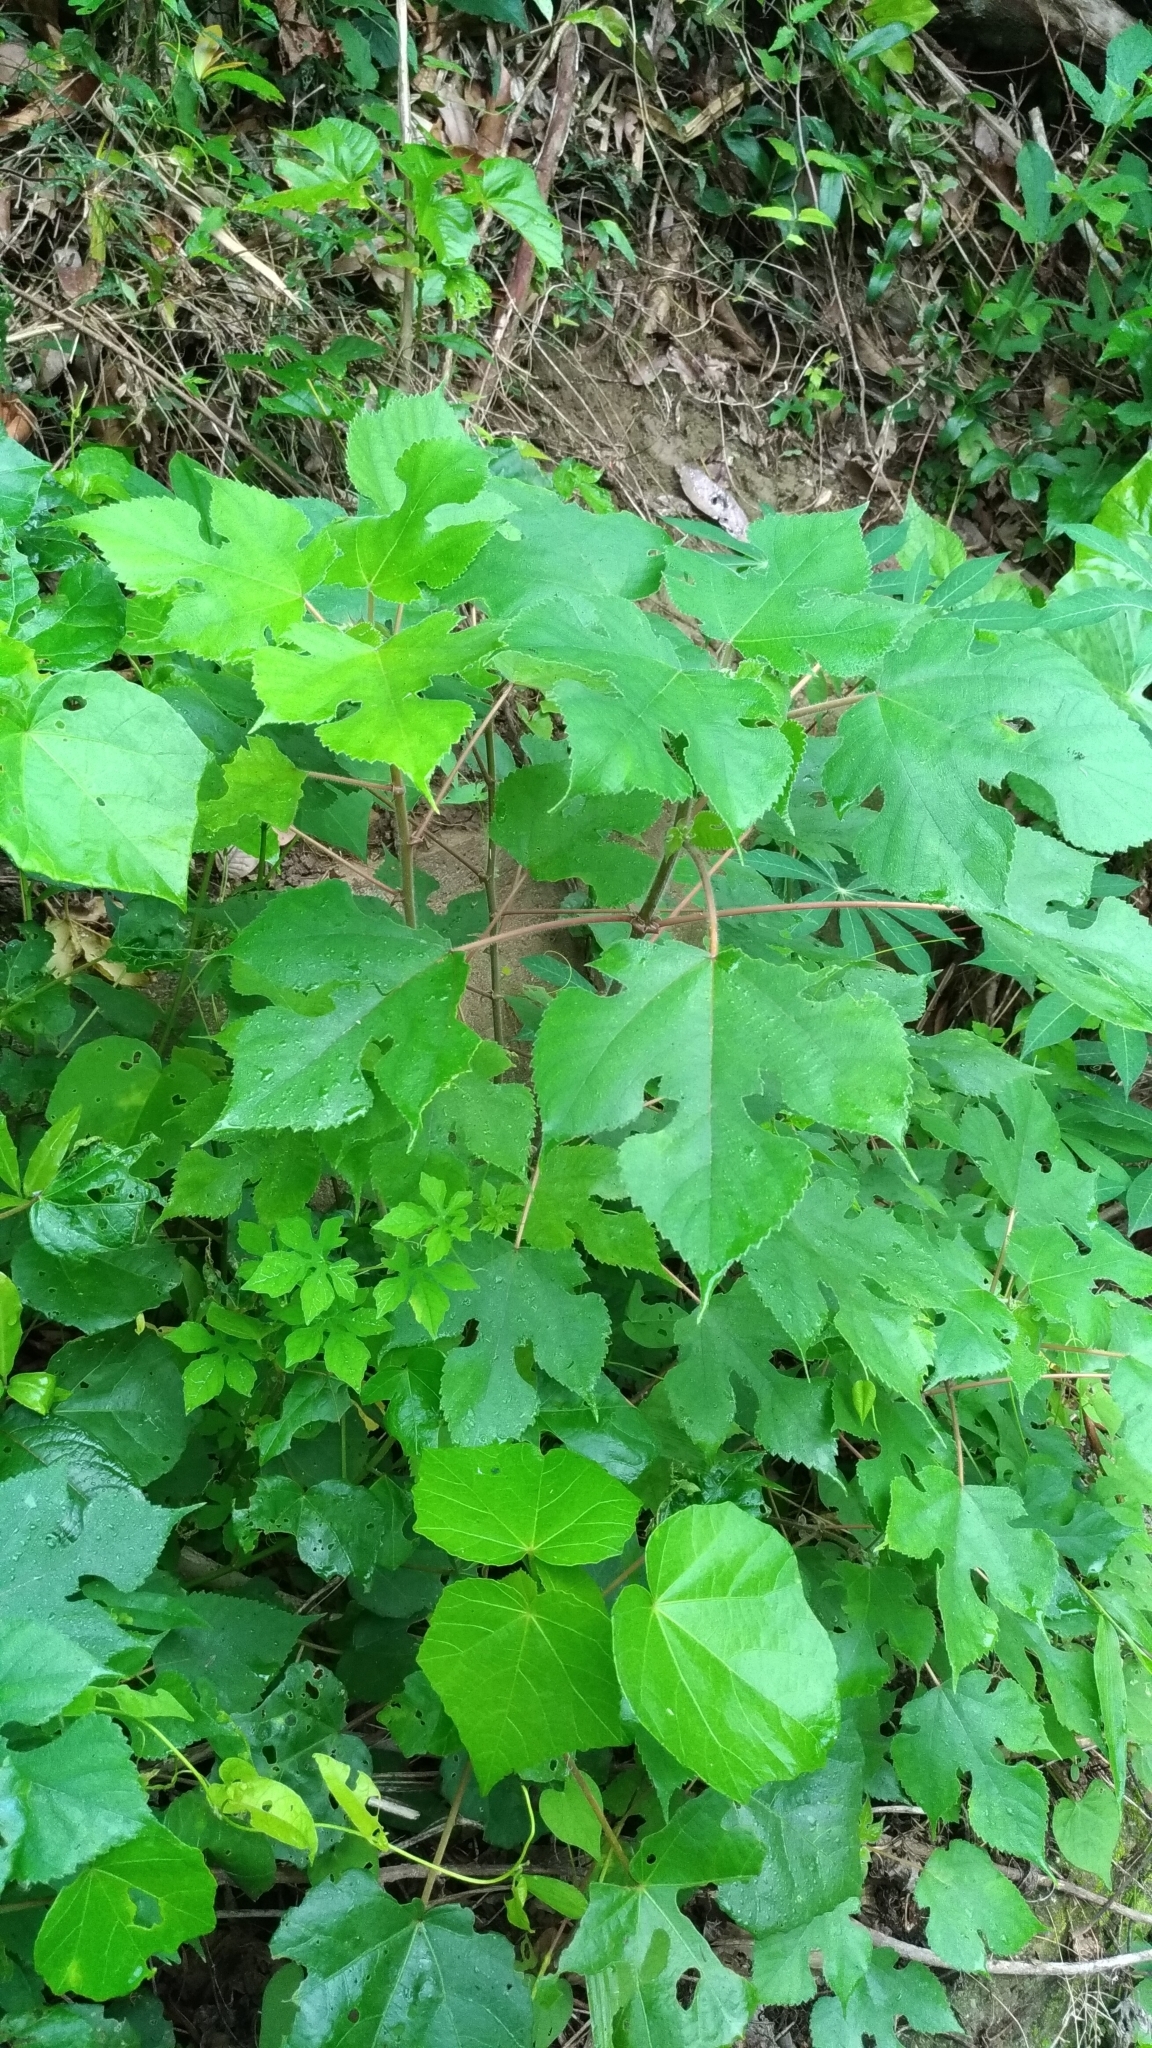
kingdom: Plantae
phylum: Tracheophyta
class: Magnoliopsida
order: Rosales
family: Moraceae
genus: Broussonetia
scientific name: Broussonetia papyrifera
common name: Paper mulberry
